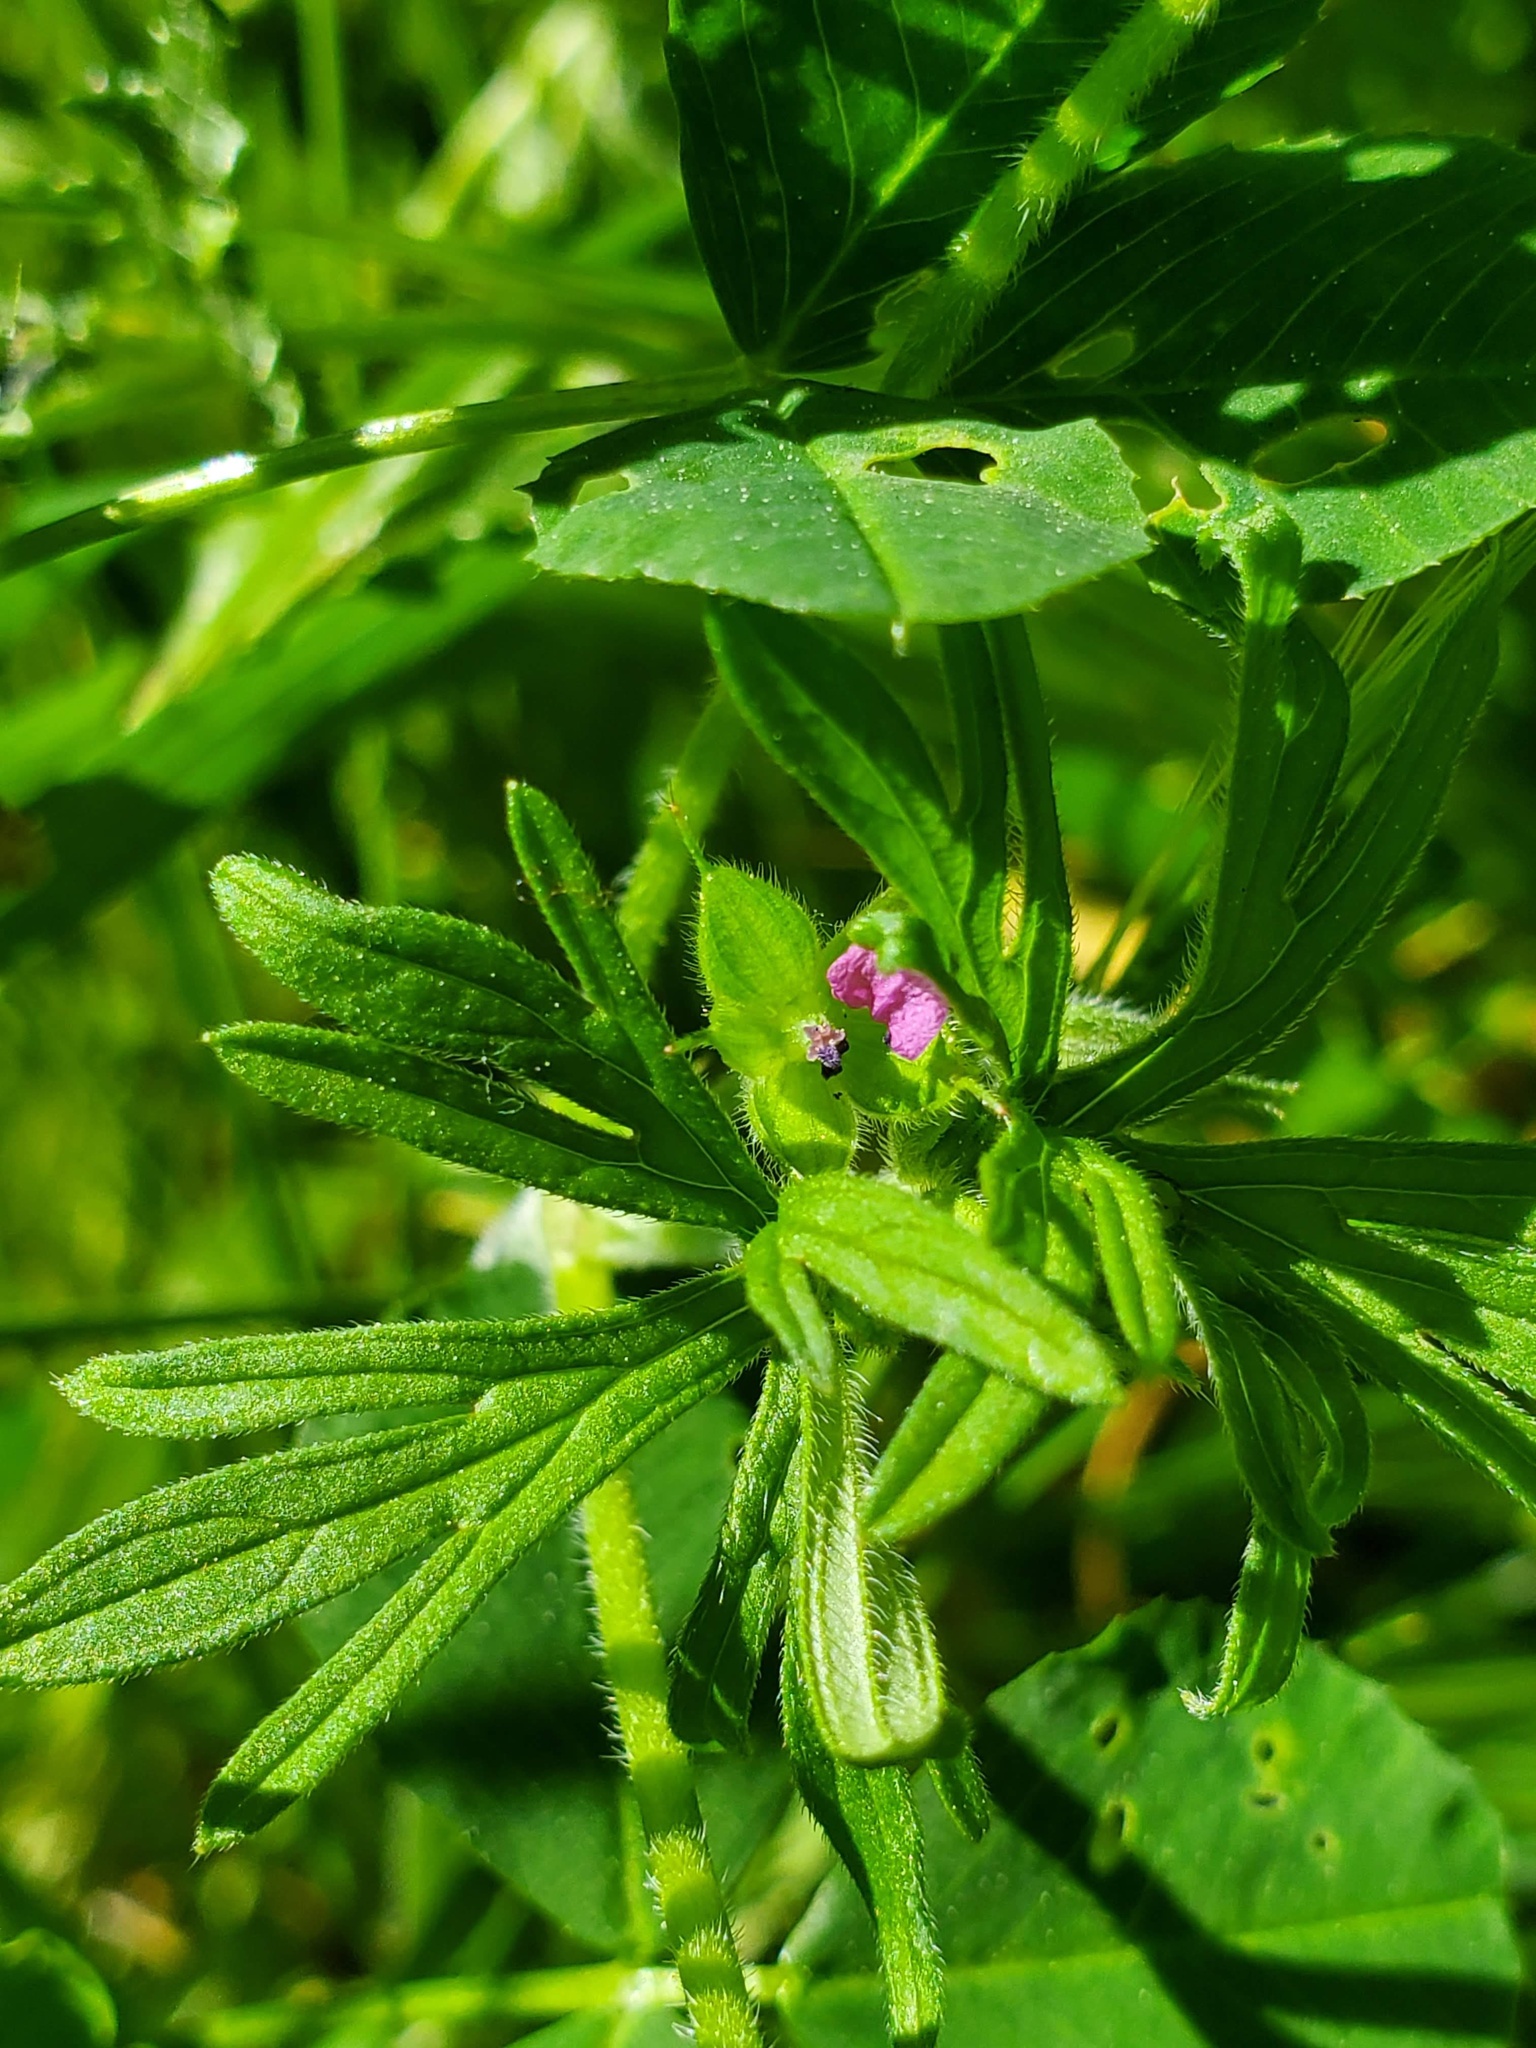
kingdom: Plantae
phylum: Tracheophyta
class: Magnoliopsida
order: Geraniales
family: Geraniaceae
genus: Geranium
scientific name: Geranium dissectum
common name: Cut-leaved crane's-bill
